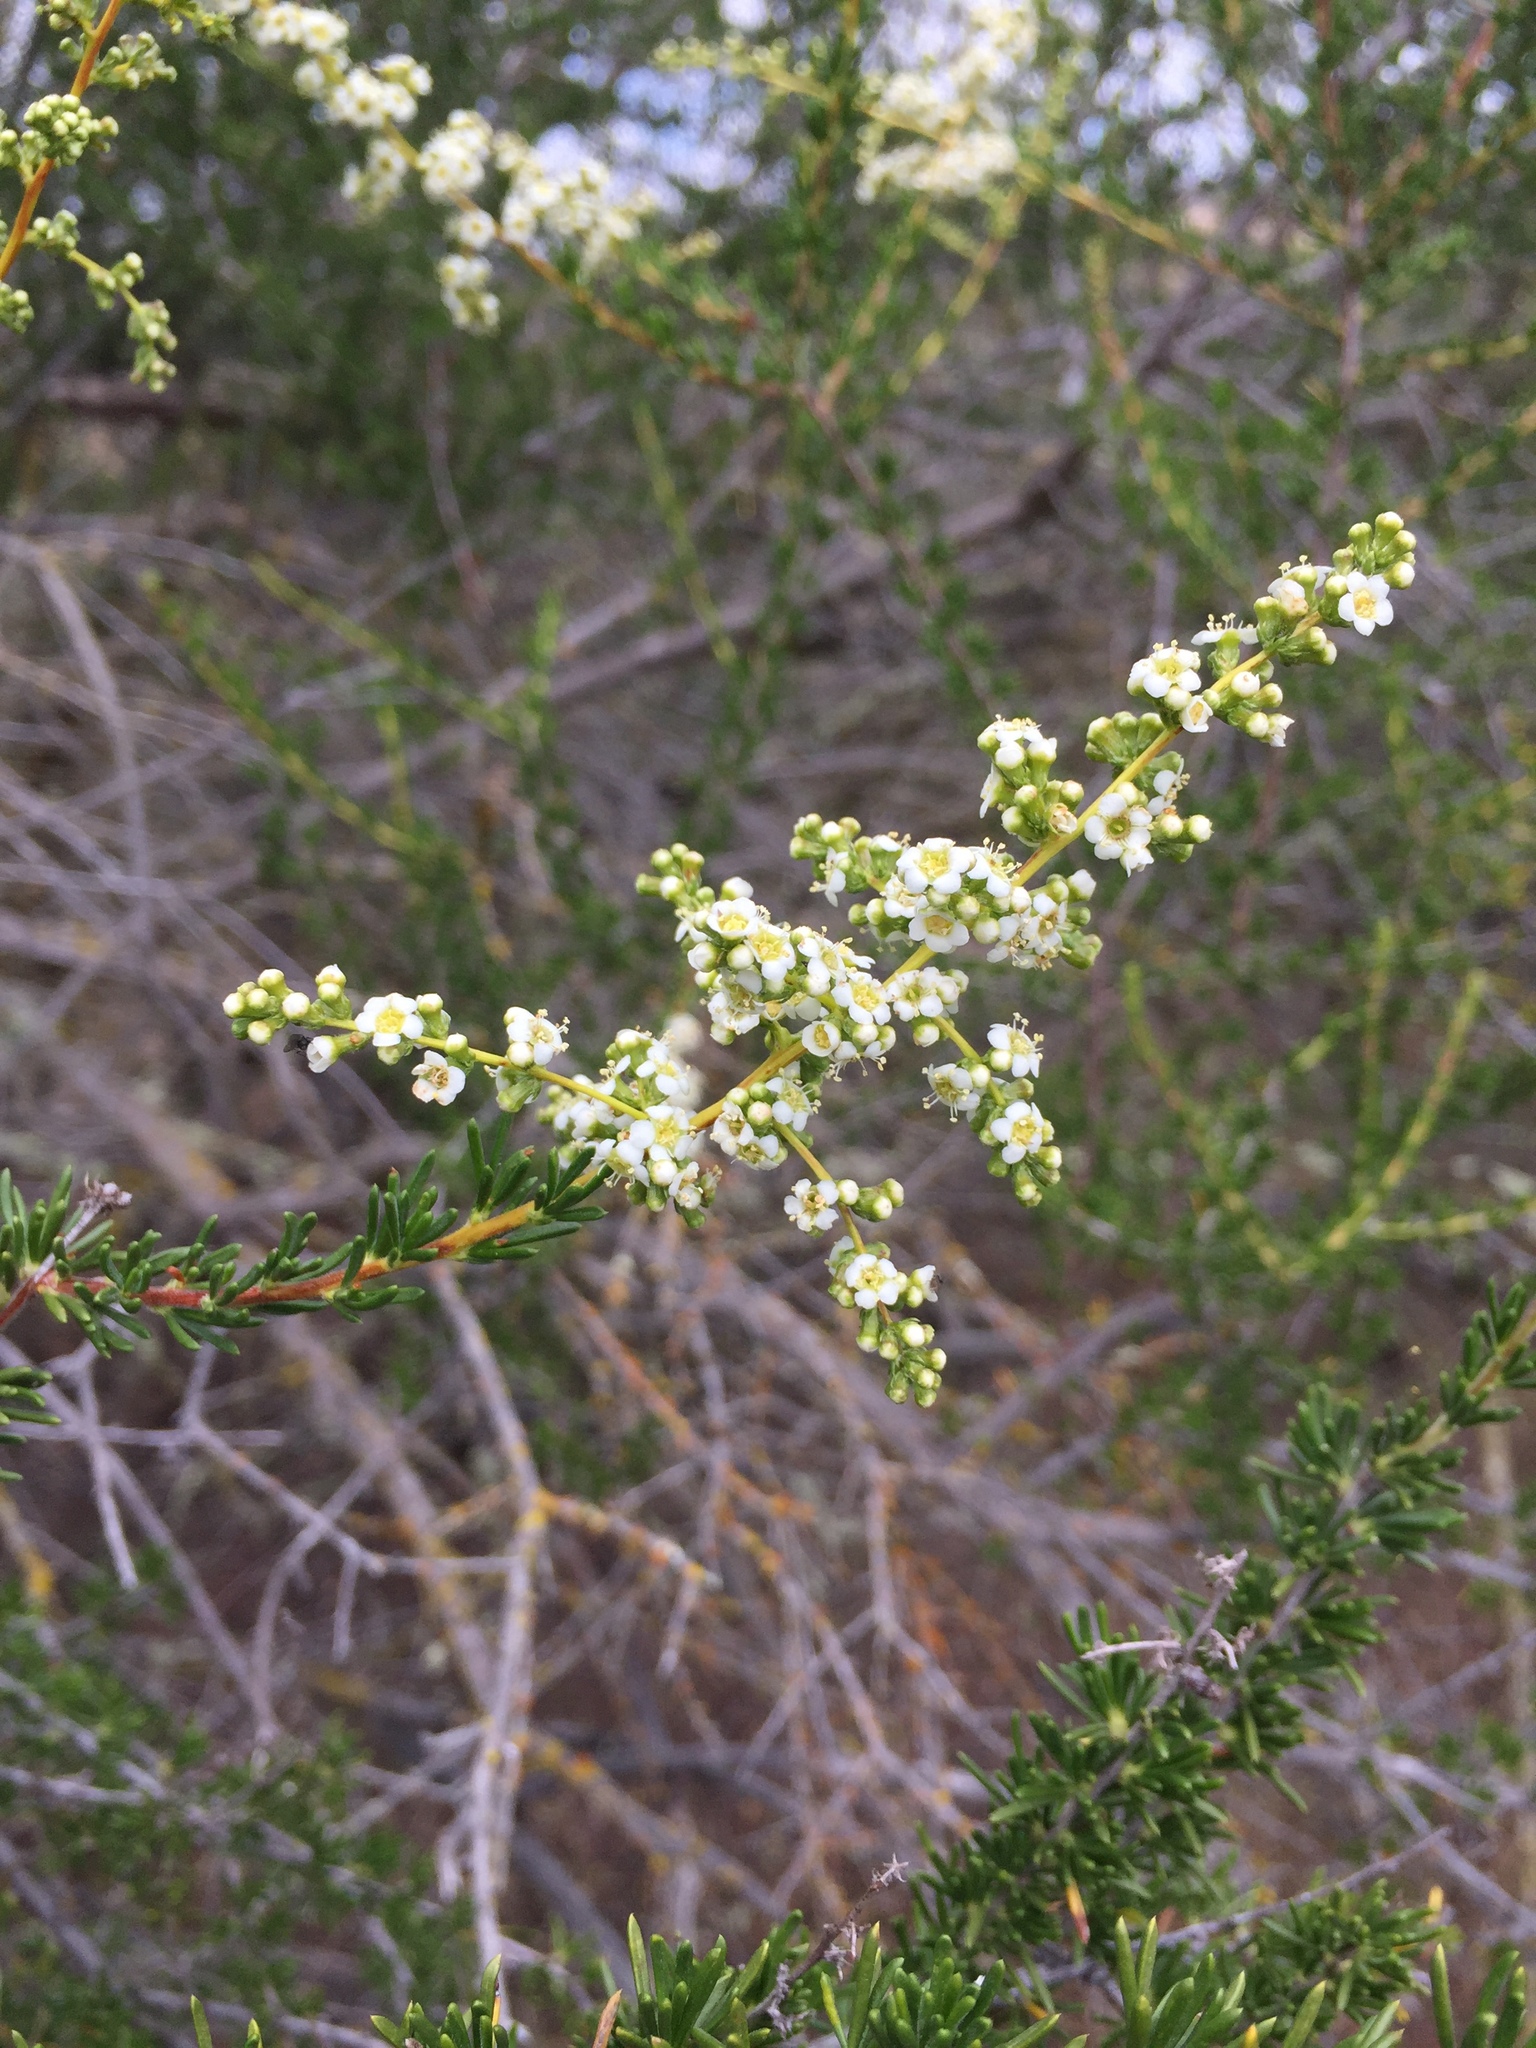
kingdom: Plantae
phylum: Tracheophyta
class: Magnoliopsida
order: Rosales
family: Rosaceae
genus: Adenostoma
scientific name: Adenostoma fasciculatum
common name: Chamise
